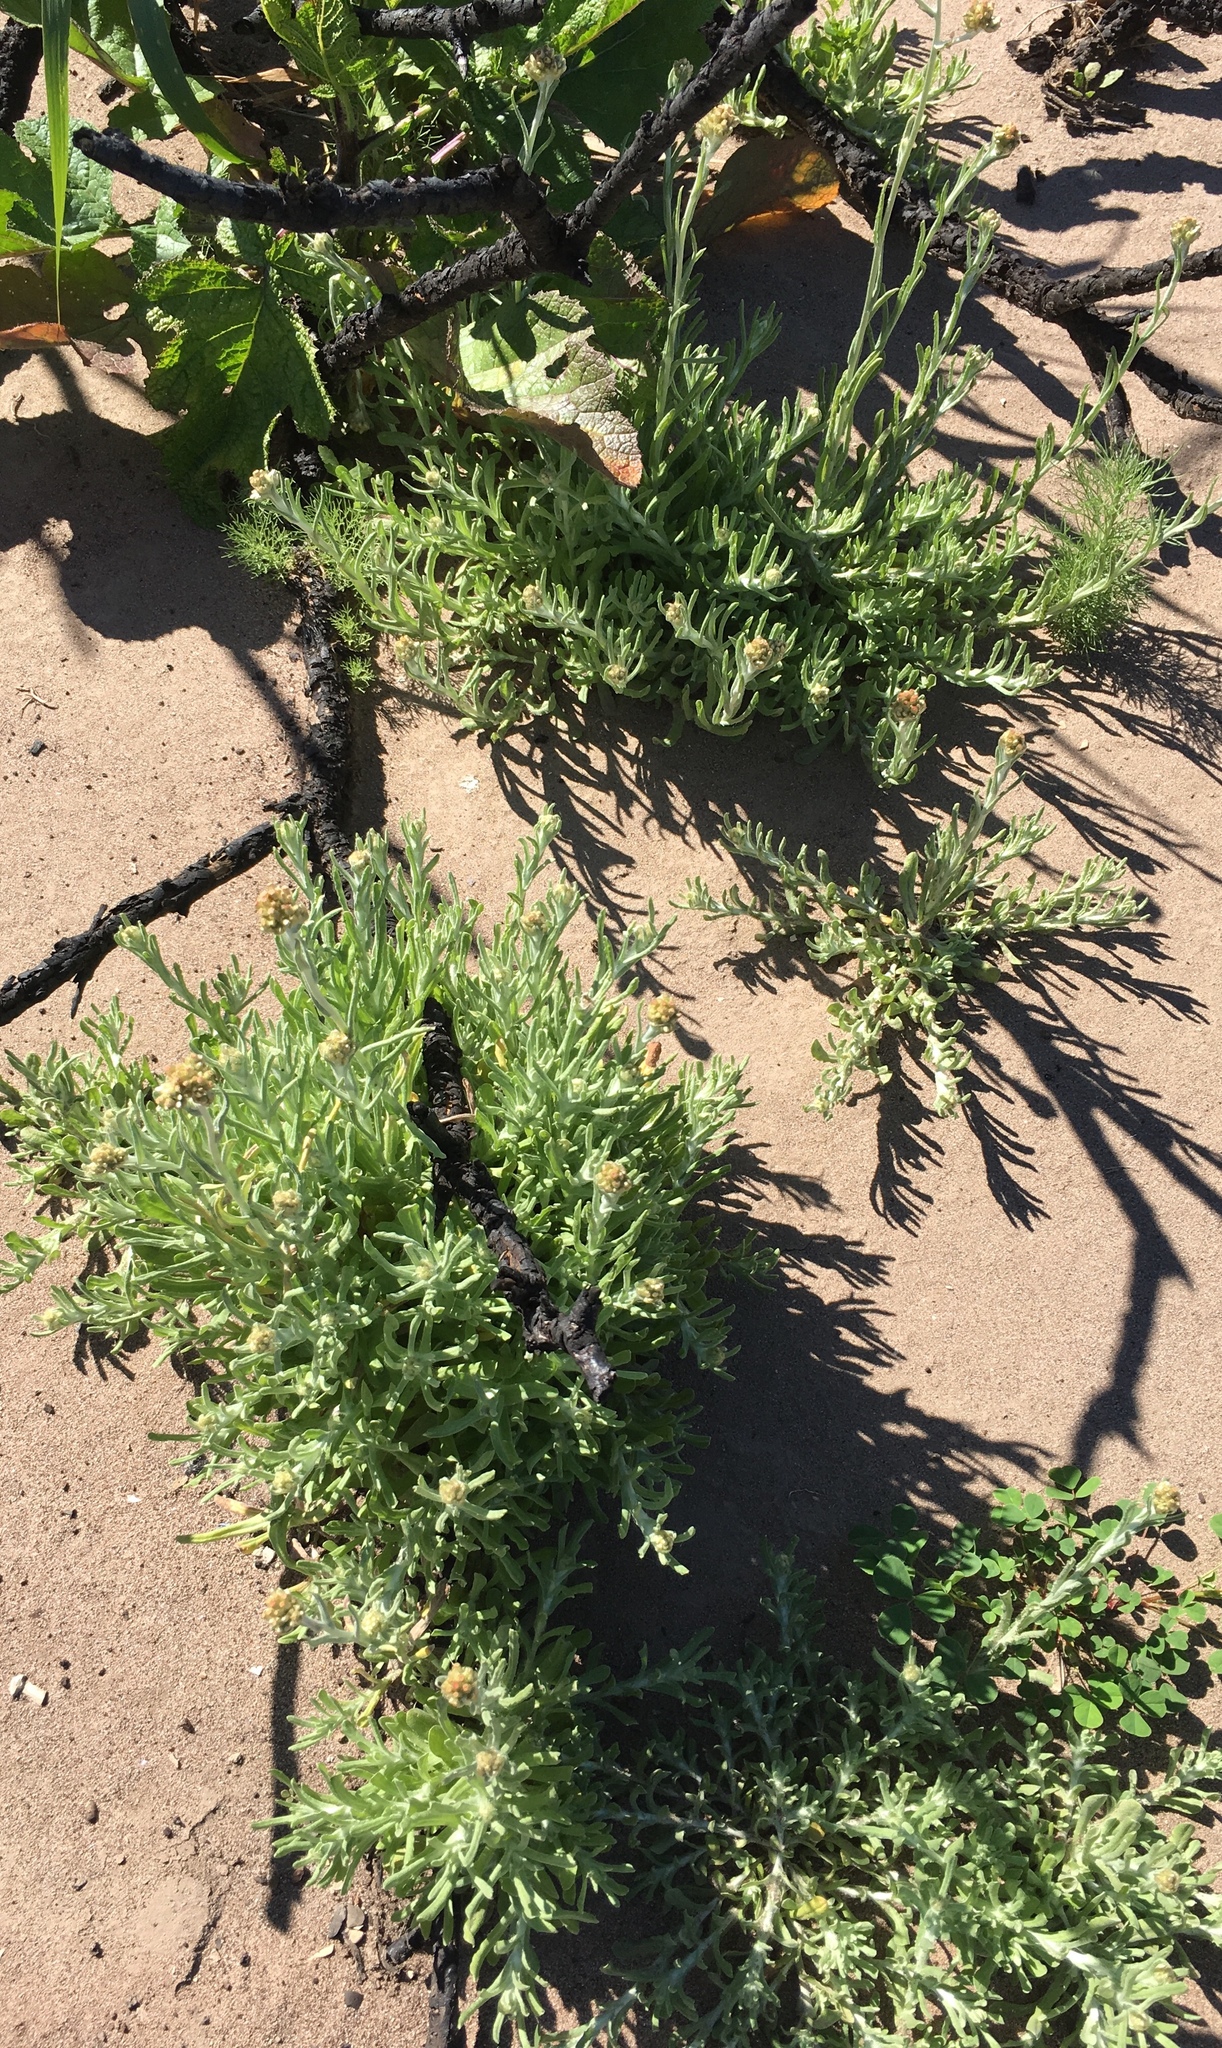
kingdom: Plantae
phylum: Tracheophyta
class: Magnoliopsida
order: Asterales
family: Asteraceae
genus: Helichrysum
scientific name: Helichrysum luteoalbum
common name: Daisy
